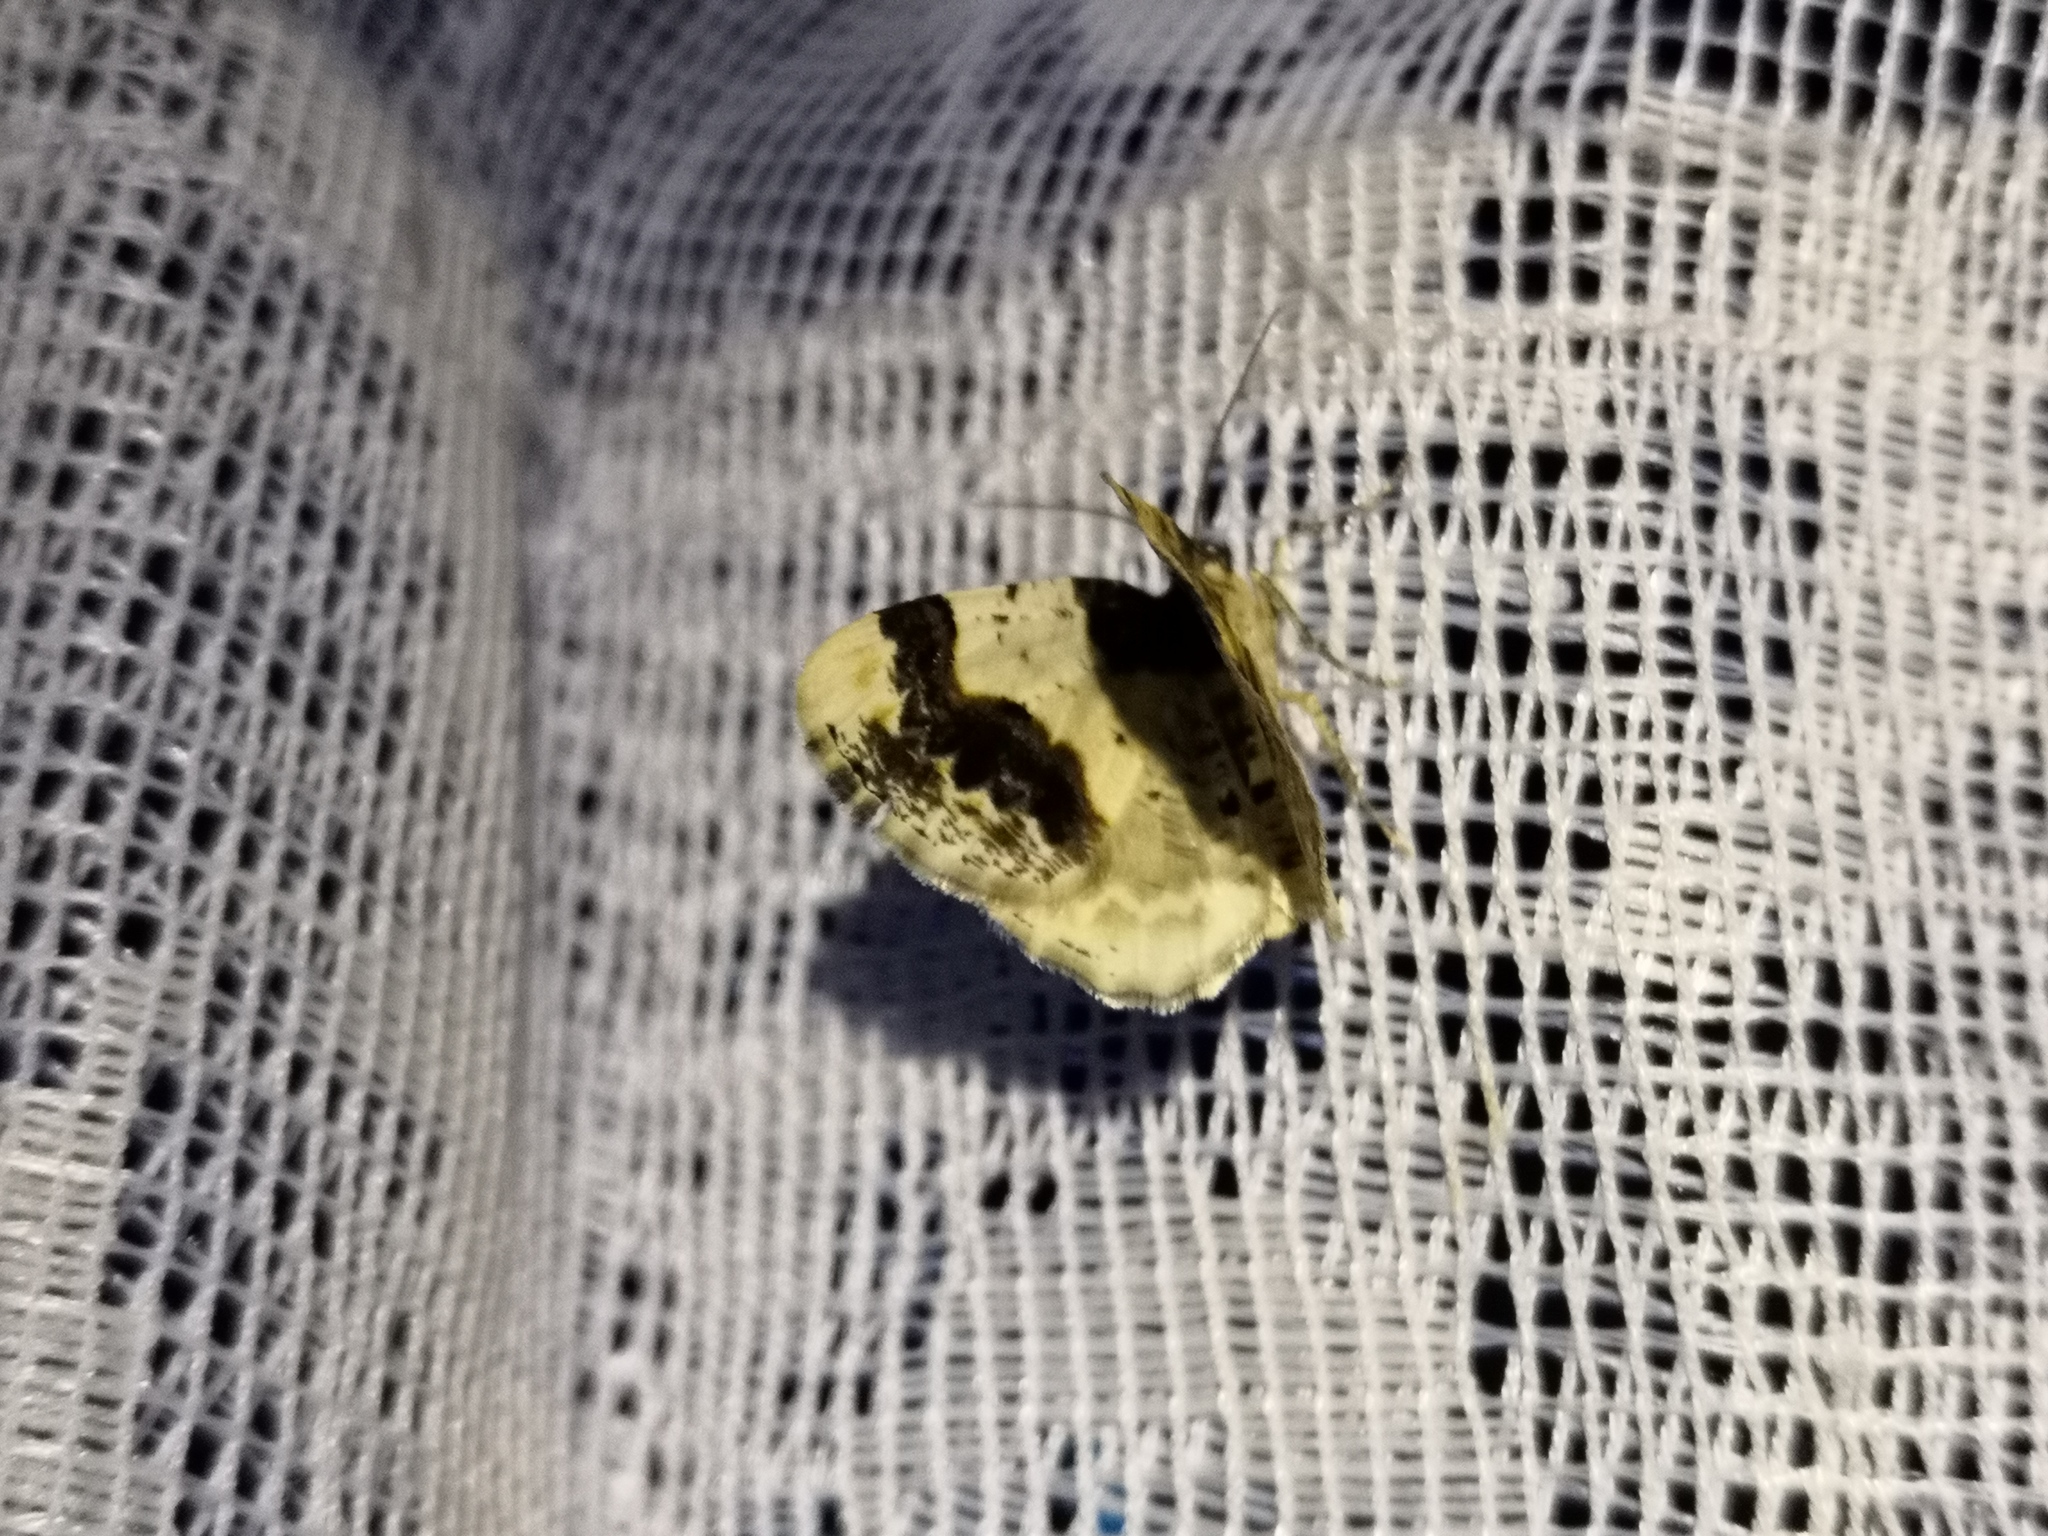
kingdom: Animalia
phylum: Arthropoda
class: Insecta
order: Lepidoptera
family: Geometridae
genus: Ligdia
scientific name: Ligdia adustata
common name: Scorched carpet
